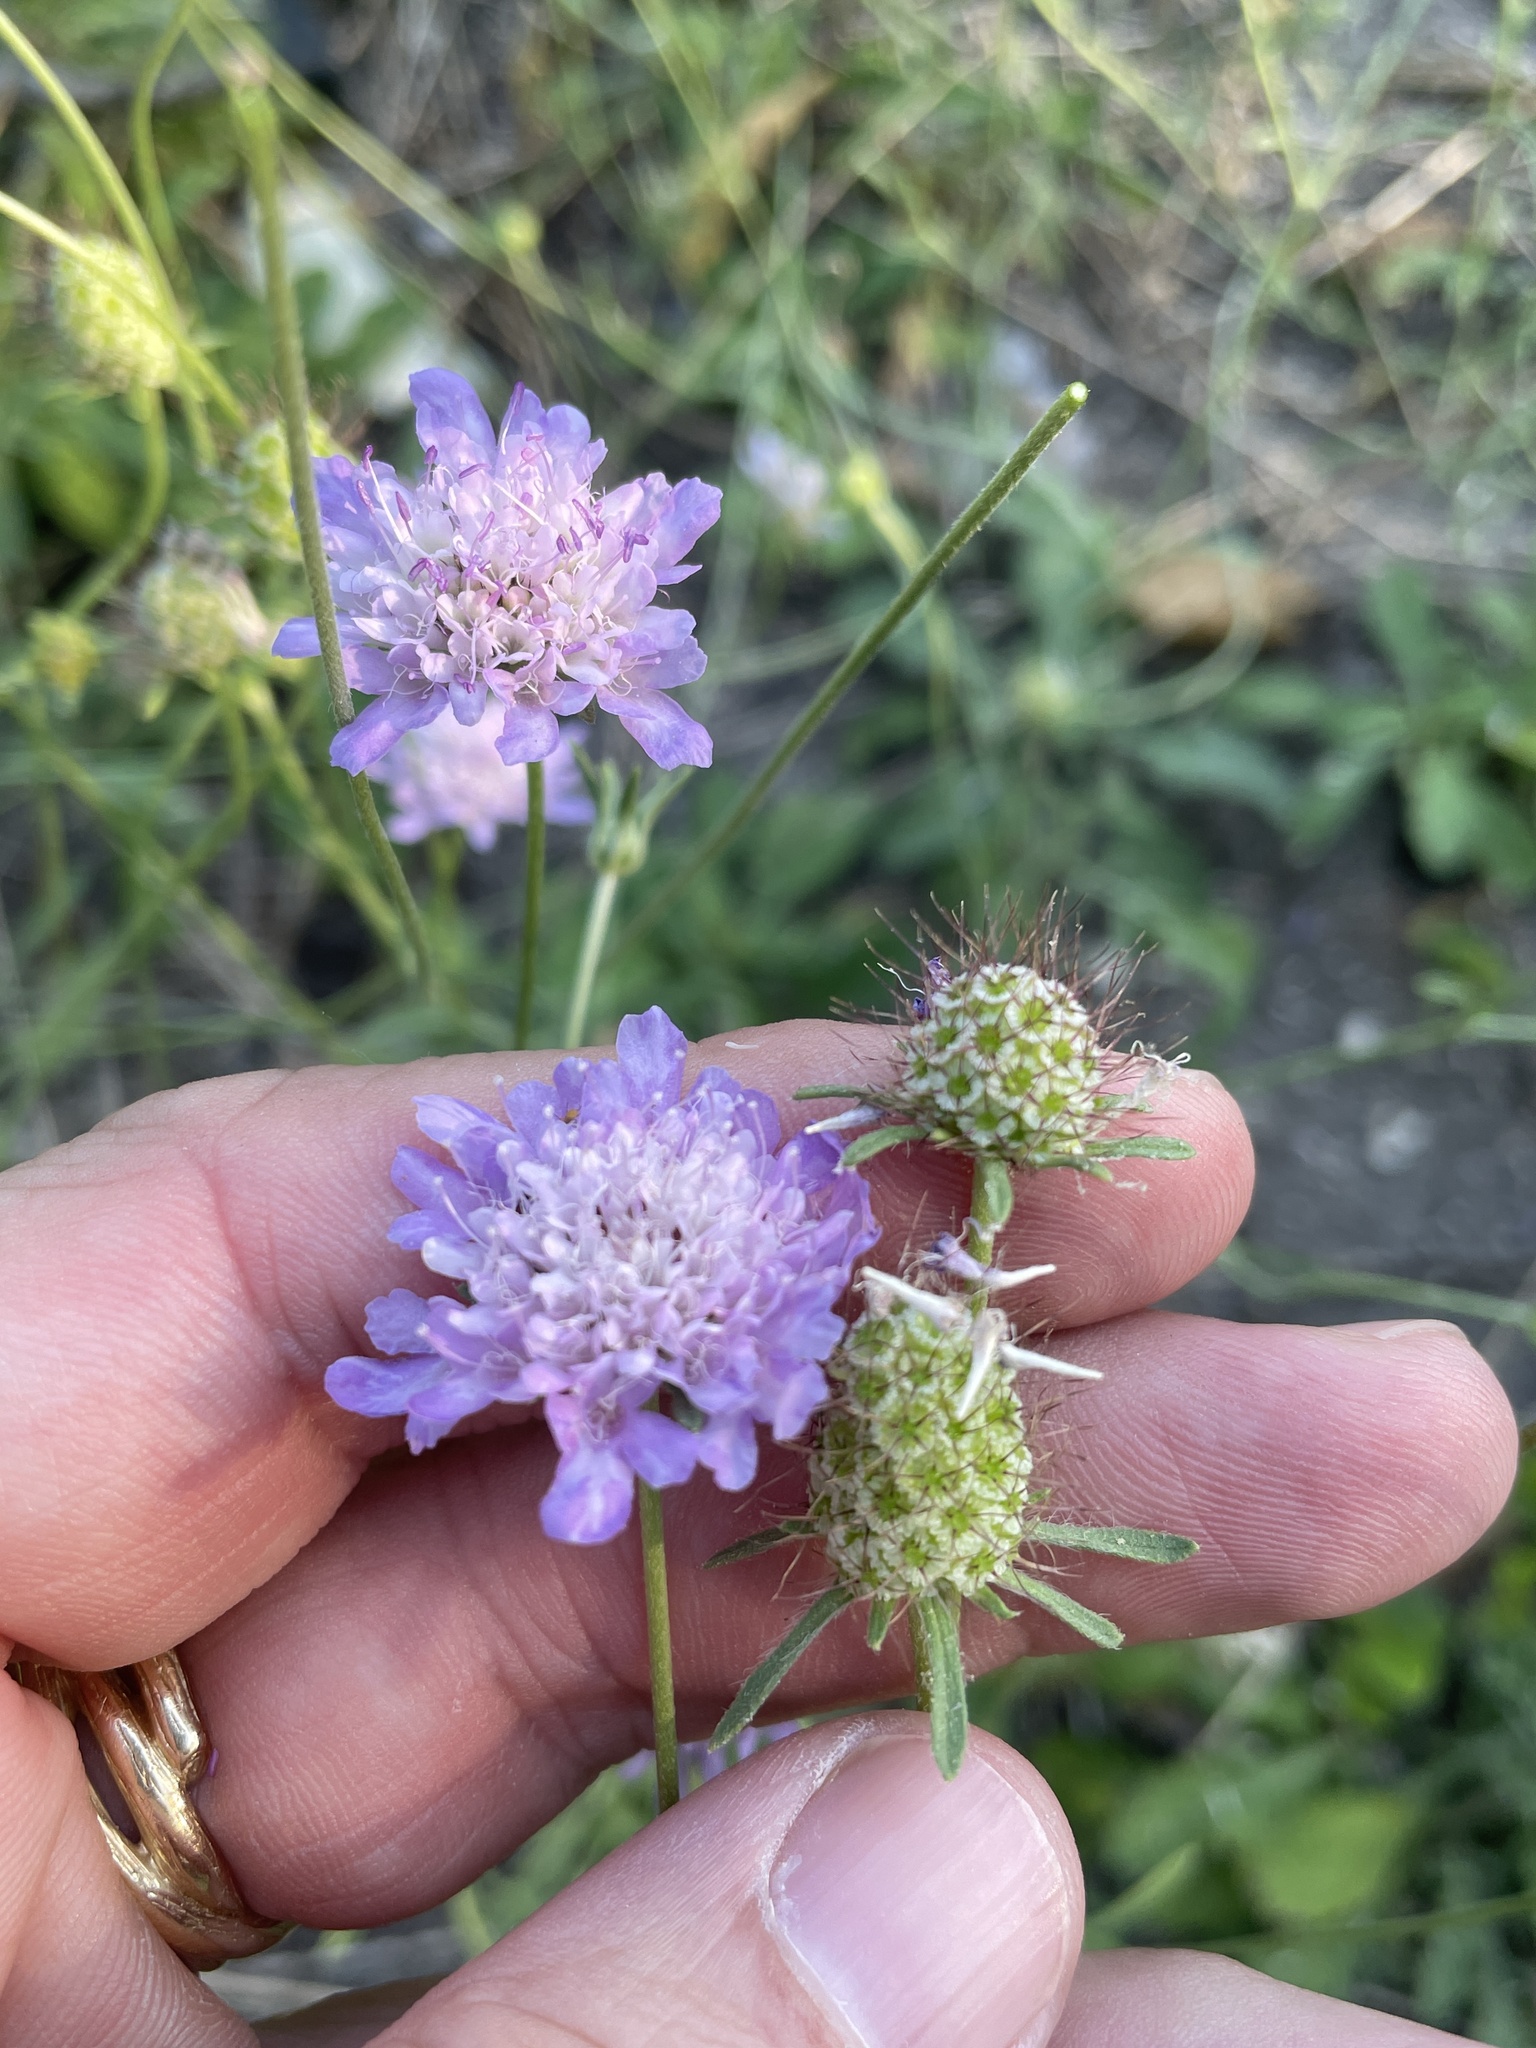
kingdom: Plantae
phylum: Tracheophyta
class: Magnoliopsida
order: Dipsacales
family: Caprifoliaceae
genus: Sixalix
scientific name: Sixalix atropurpurea
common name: Sweet scabious
